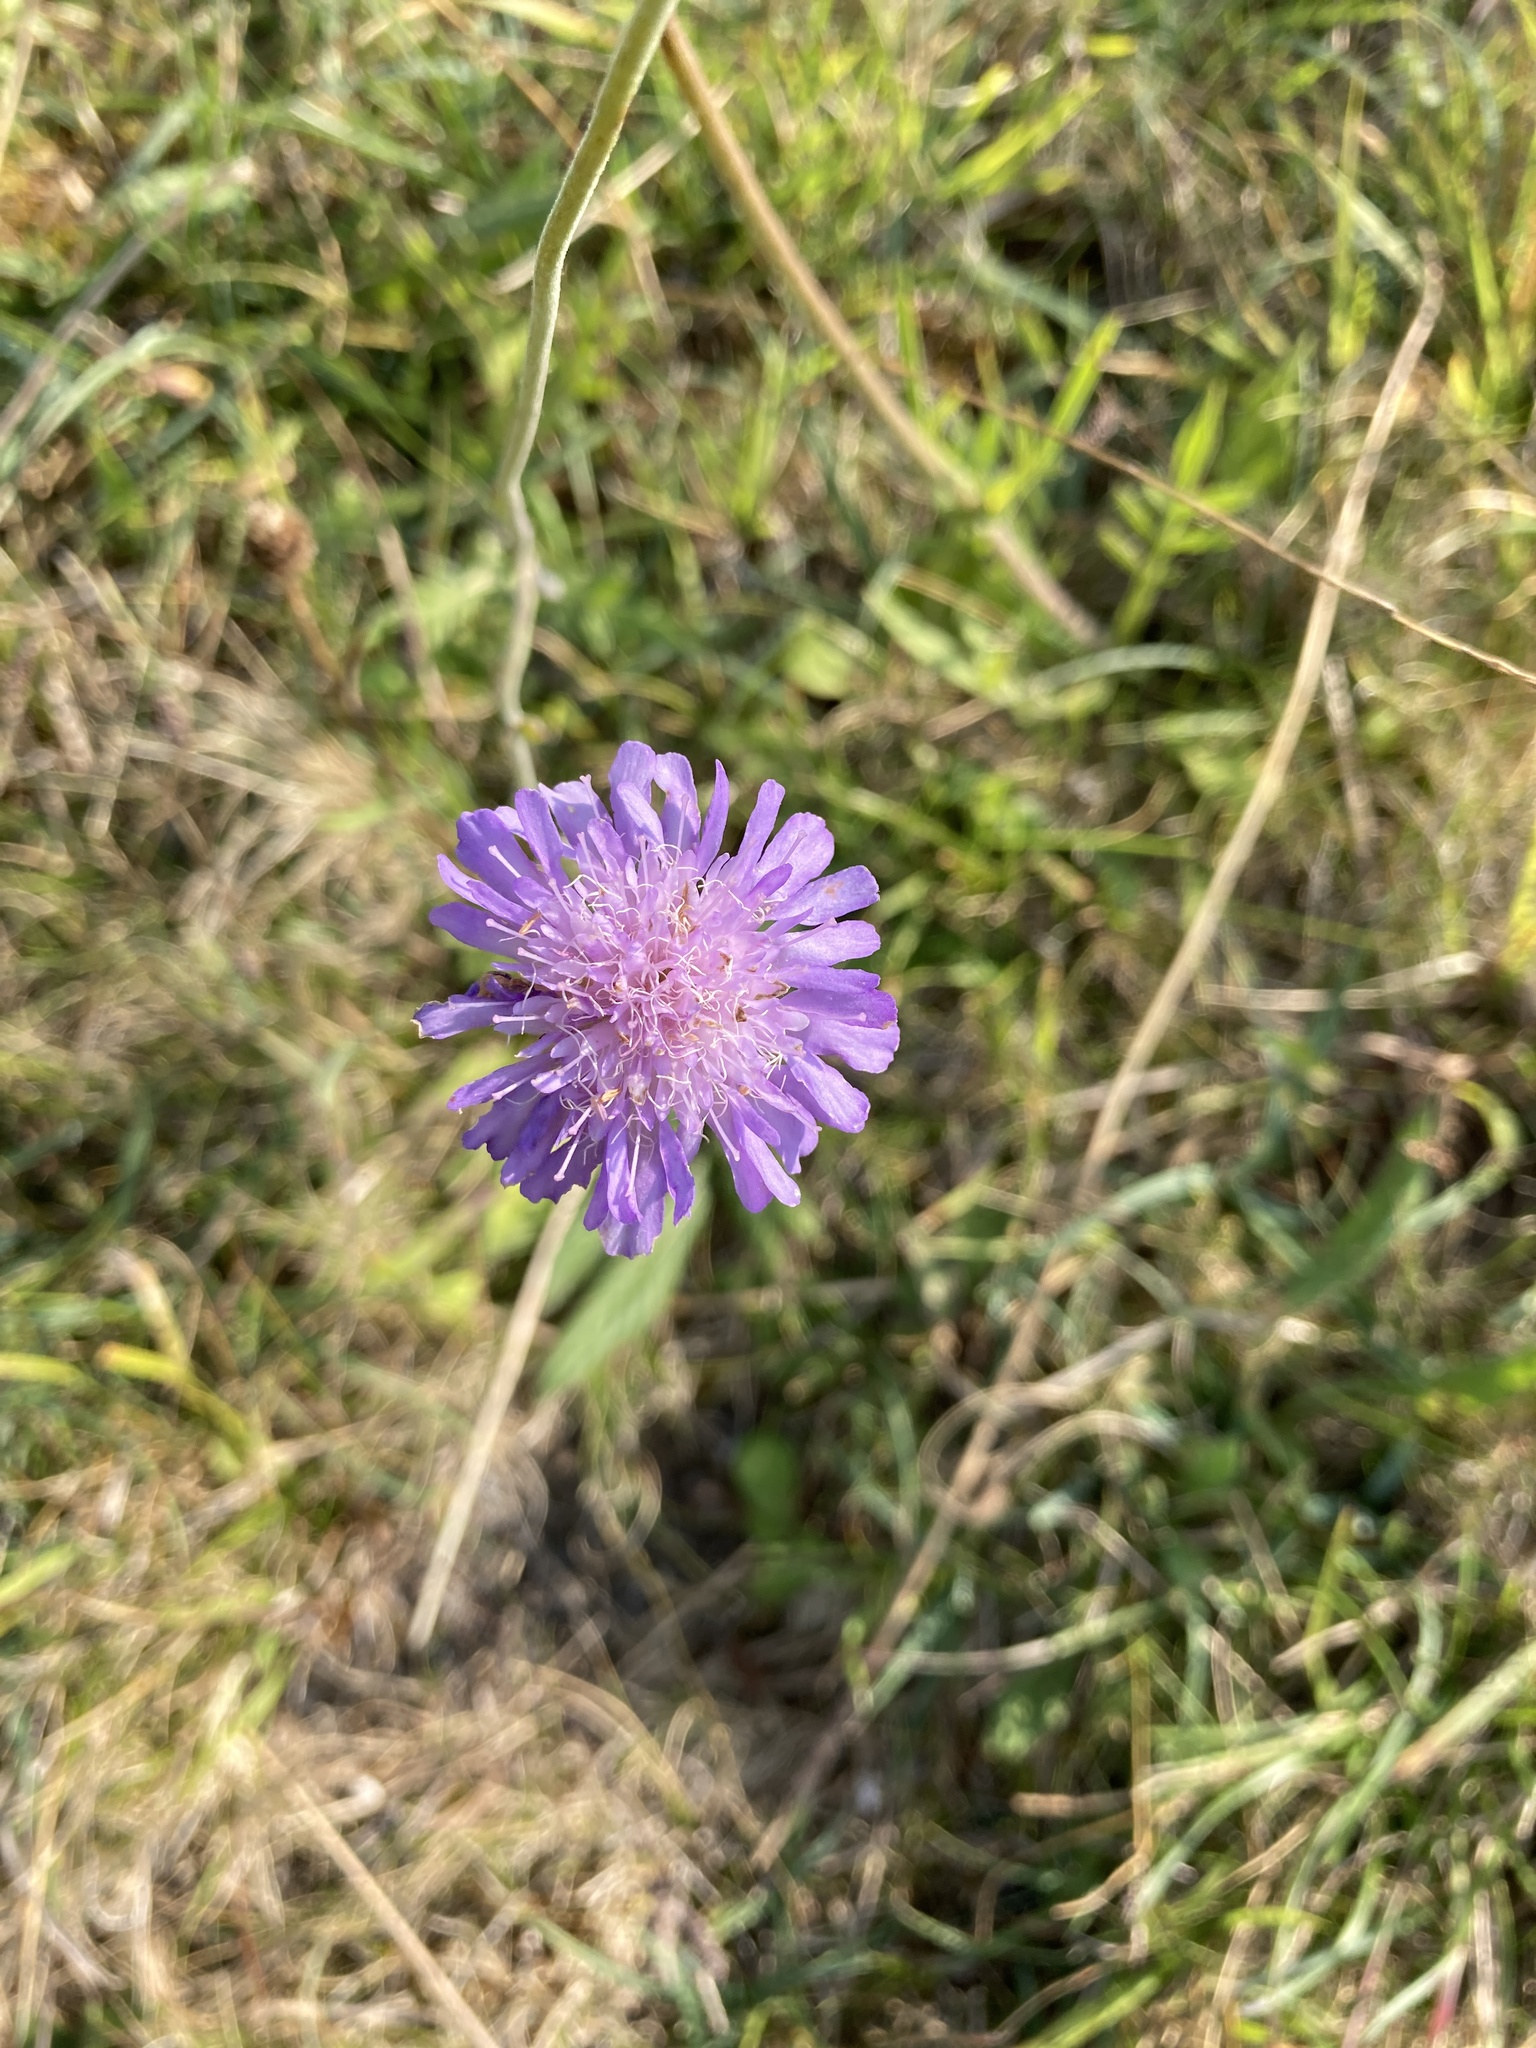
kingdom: Plantae
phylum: Tracheophyta
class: Magnoliopsida
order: Dipsacales
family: Caprifoliaceae
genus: Knautia
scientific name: Knautia arvensis
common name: Field scabiosa
